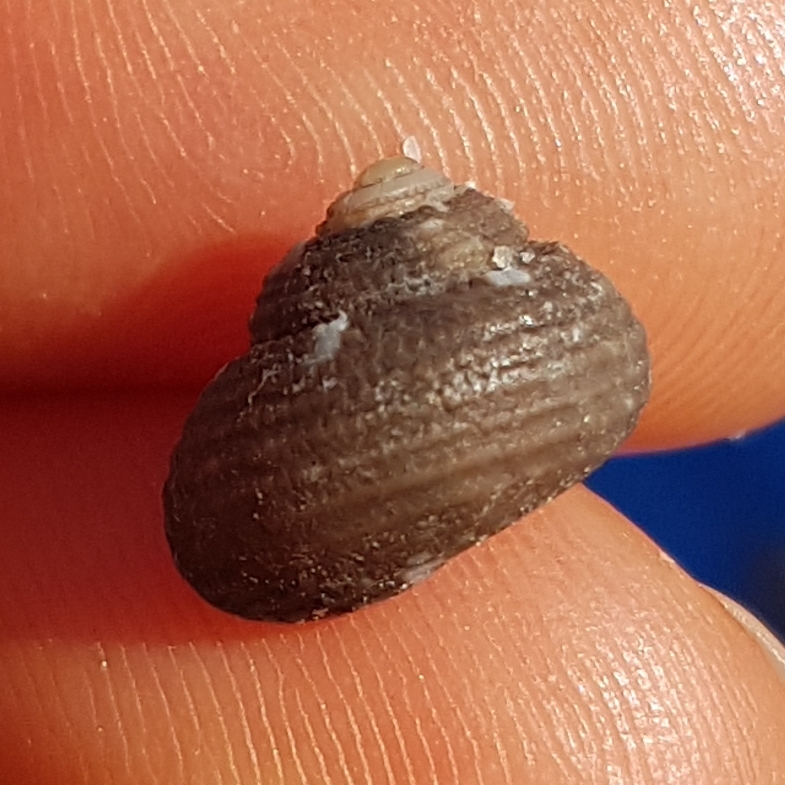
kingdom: Animalia
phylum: Mollusca
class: Gastropoda
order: Trochida
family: Trochidae
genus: Clanculus
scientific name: Clanculus cruciatus
